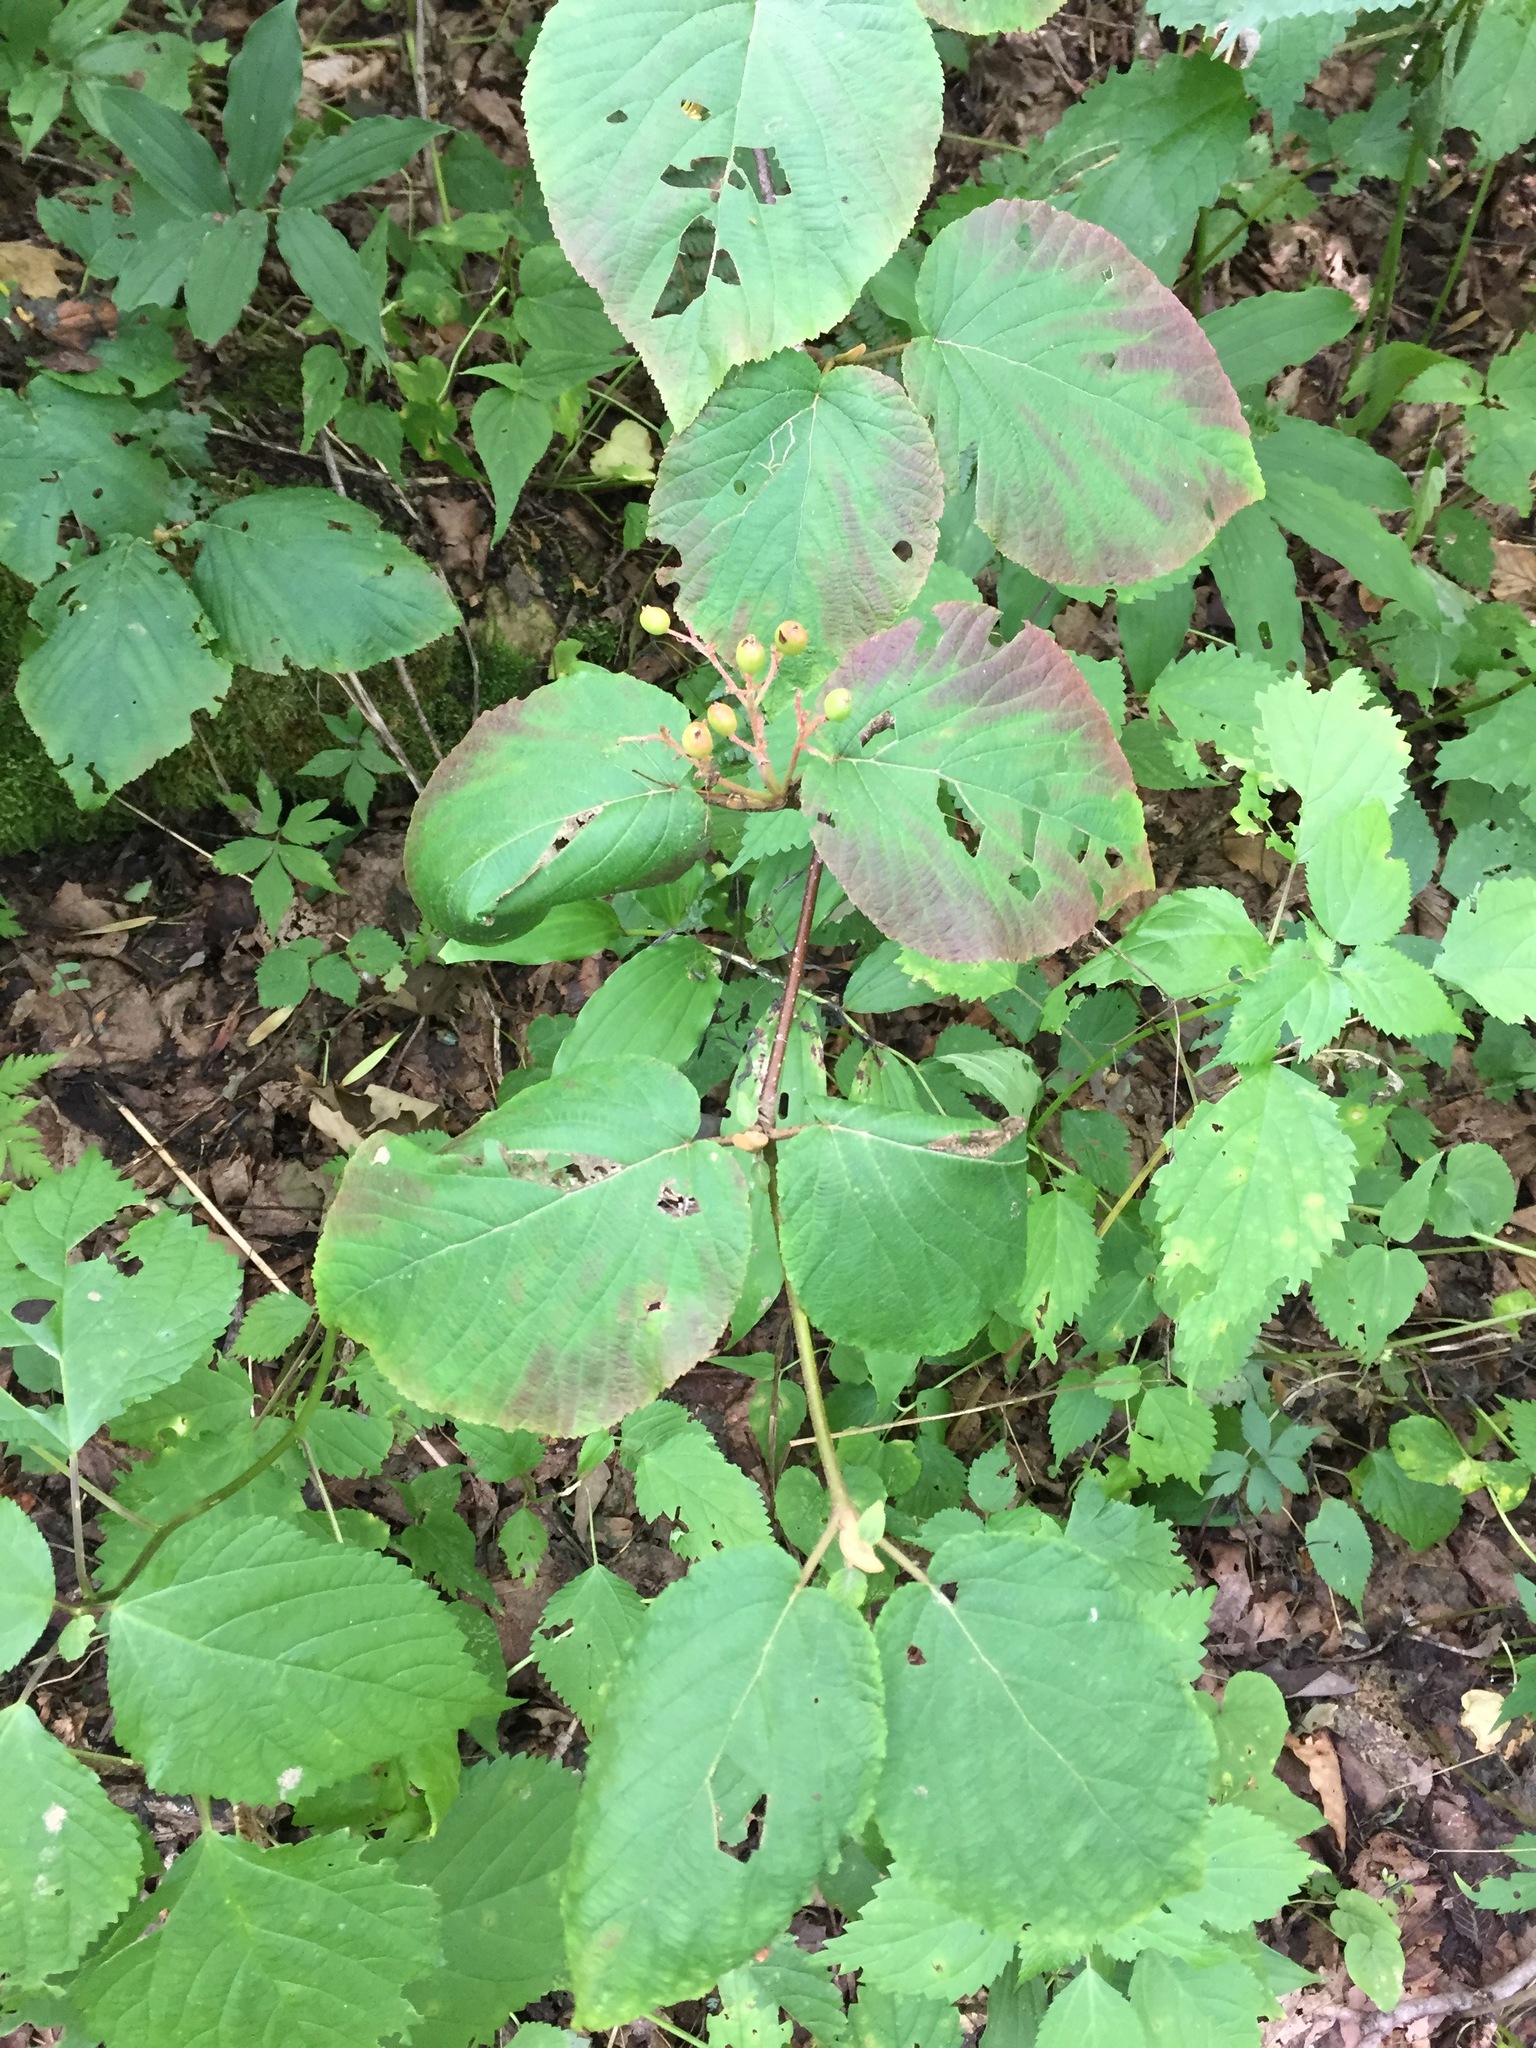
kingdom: Plantae
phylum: Tracheophyta
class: Magnoliopsida
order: Dipsacales
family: Viburnaceae
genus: Viburnum
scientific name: Viburnum lantanoides
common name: Hobblebush
